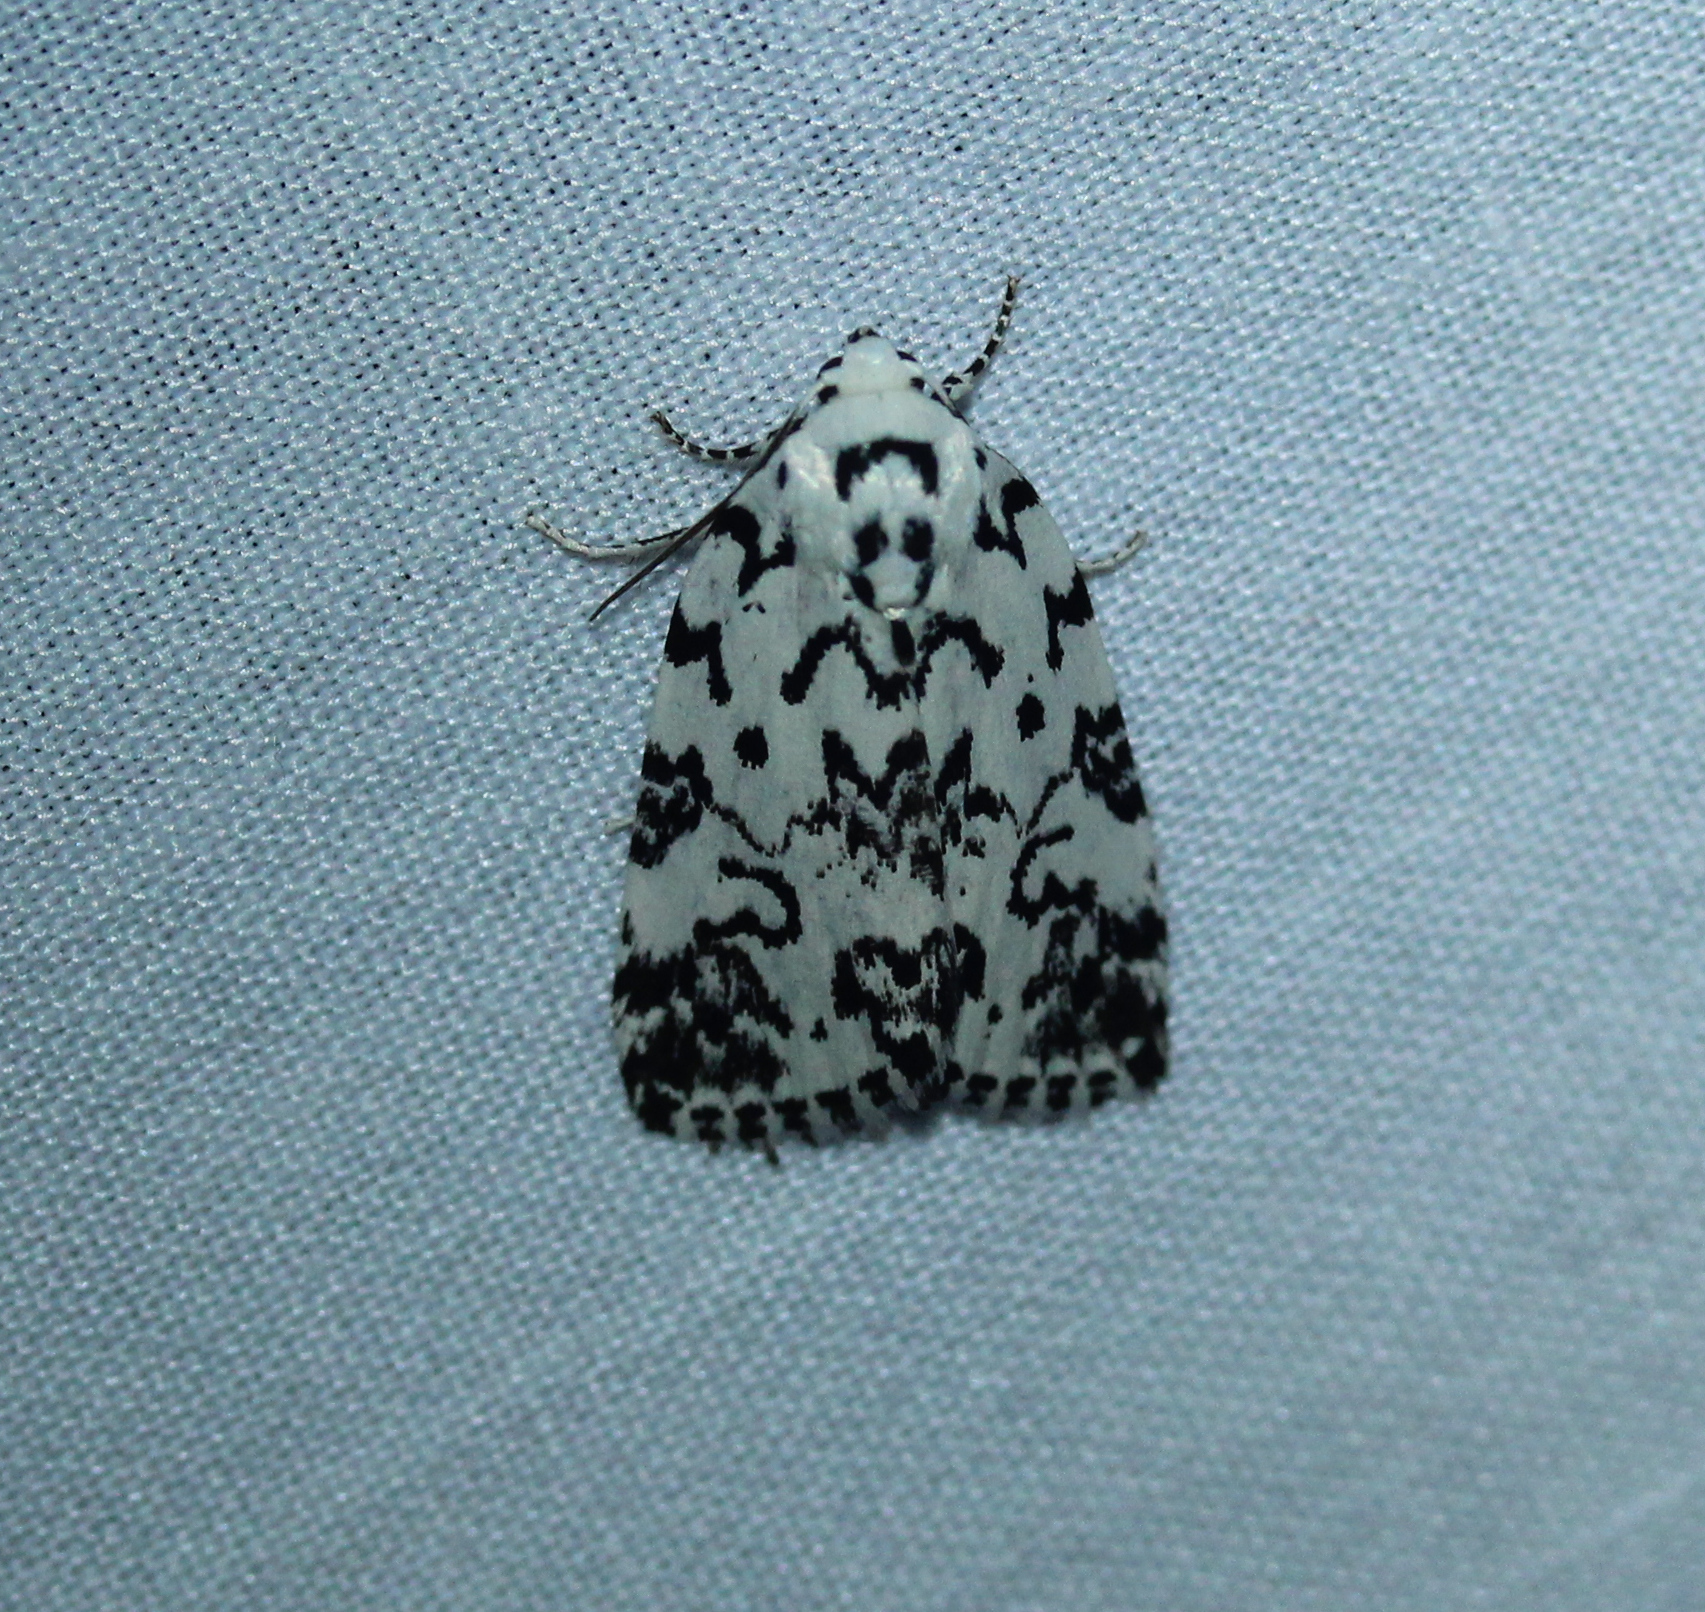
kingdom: Animalia
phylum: Arthropoda
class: Insecta
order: Lepidoptera
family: Noctuidae
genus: Polygrammate
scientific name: Polygrammate hebraeicum
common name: Hebrew moth
